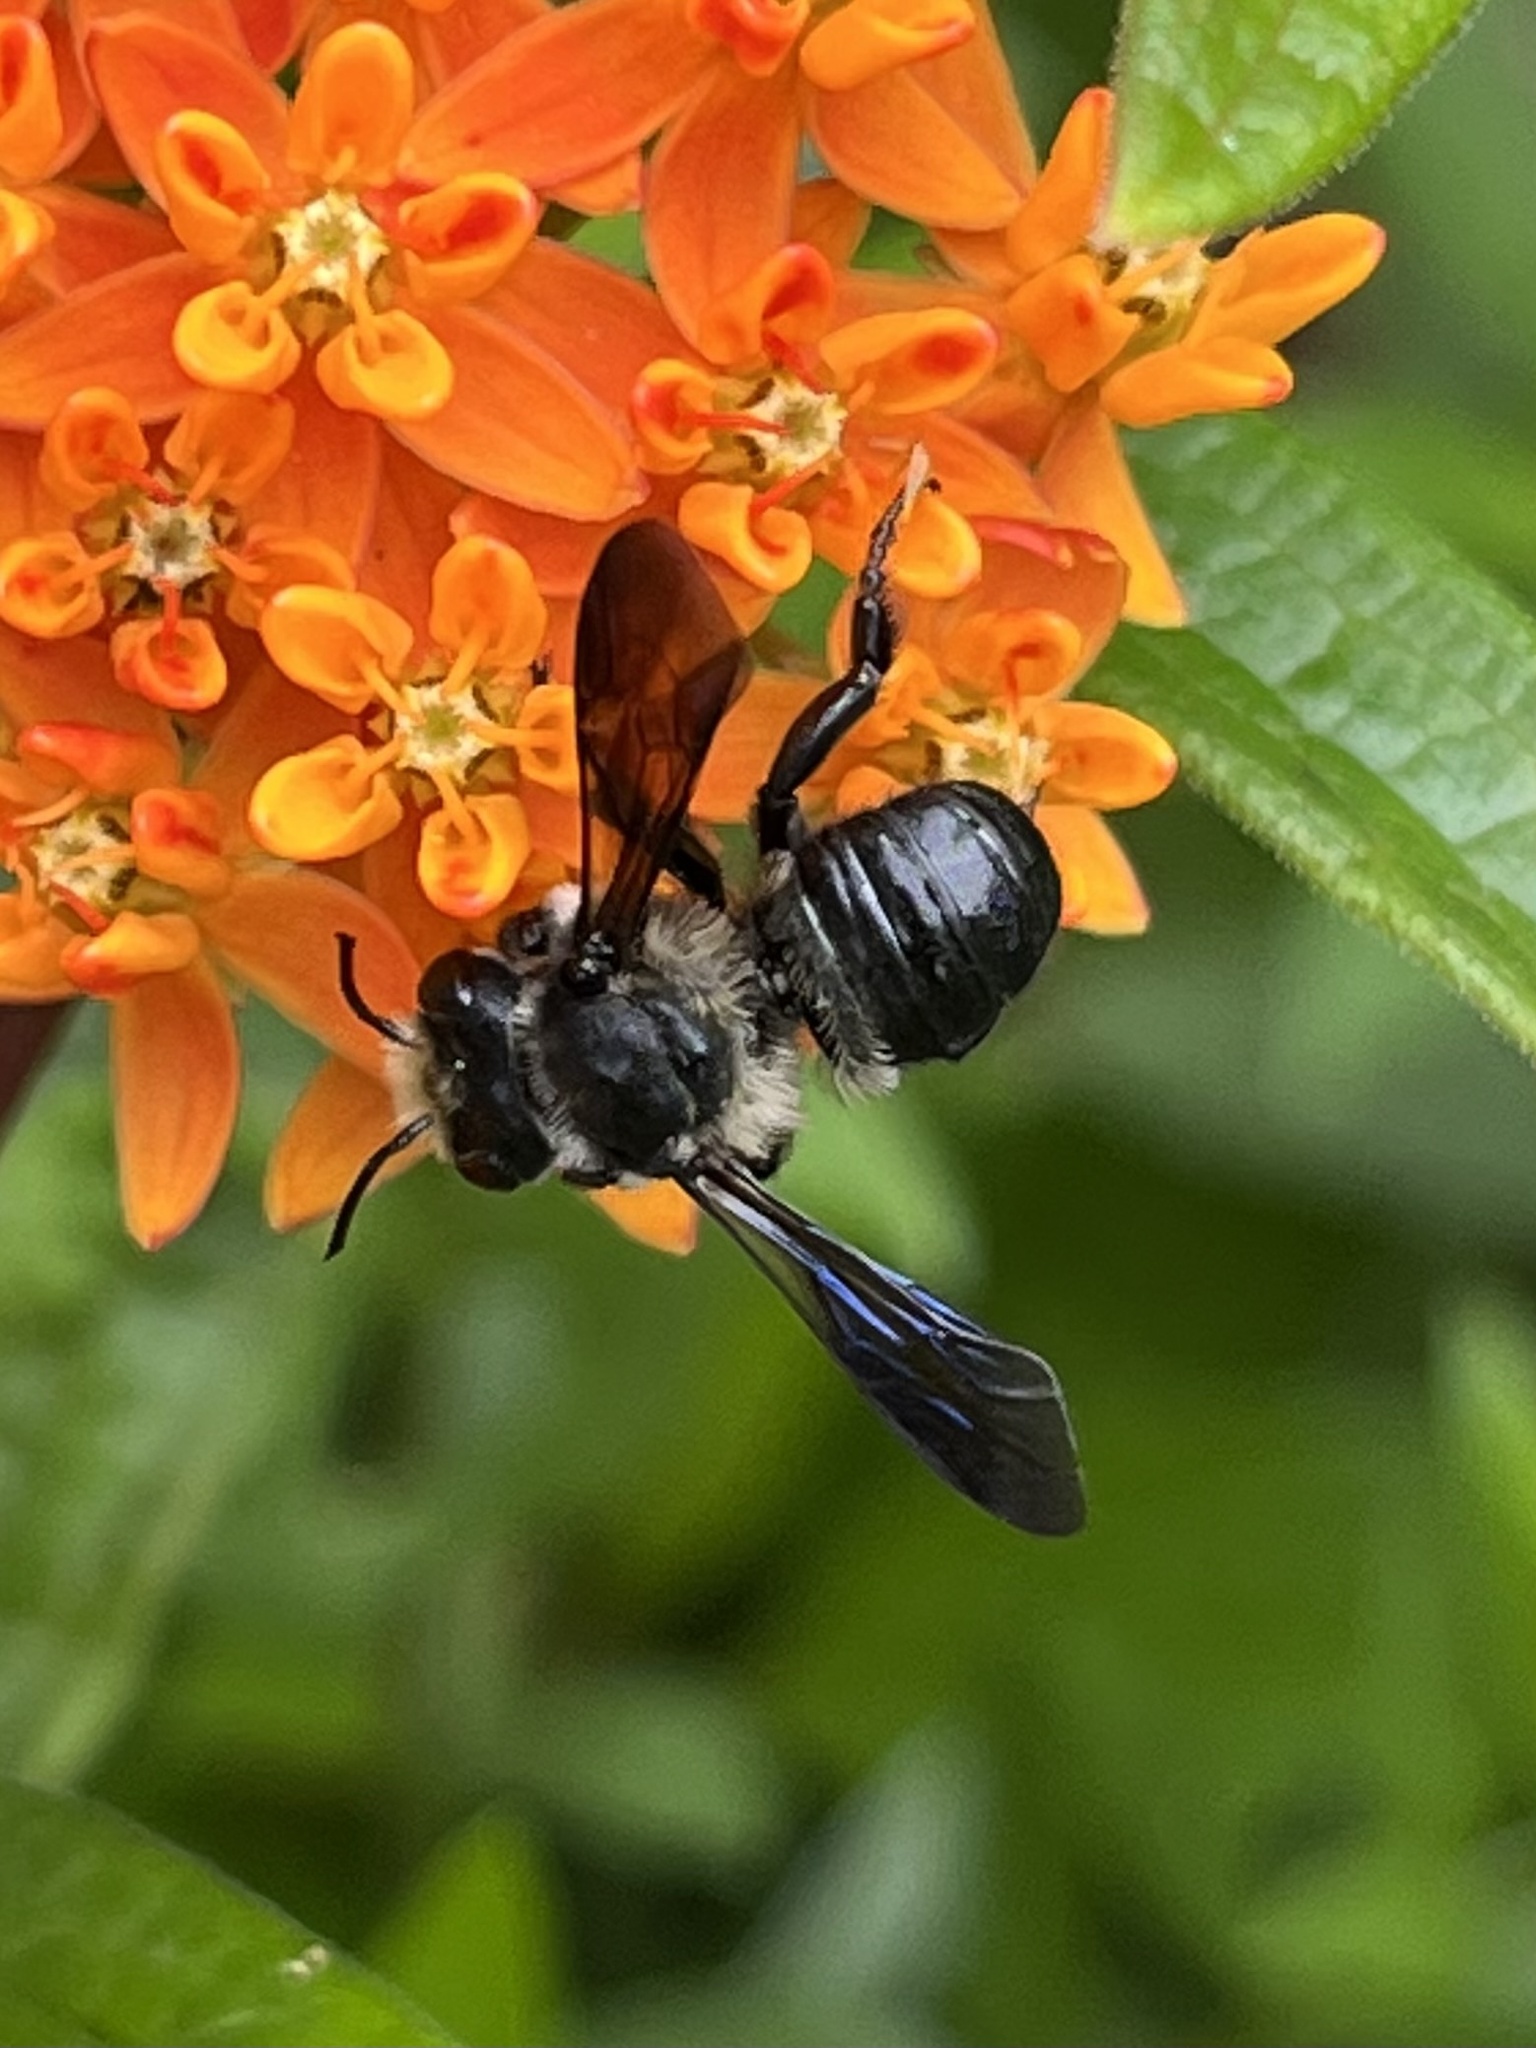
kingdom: Animalia
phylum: Arthropoda
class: Insecta
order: Hymenoptera
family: Megachilidae
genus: Megachile
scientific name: Megachile xylocopoides
